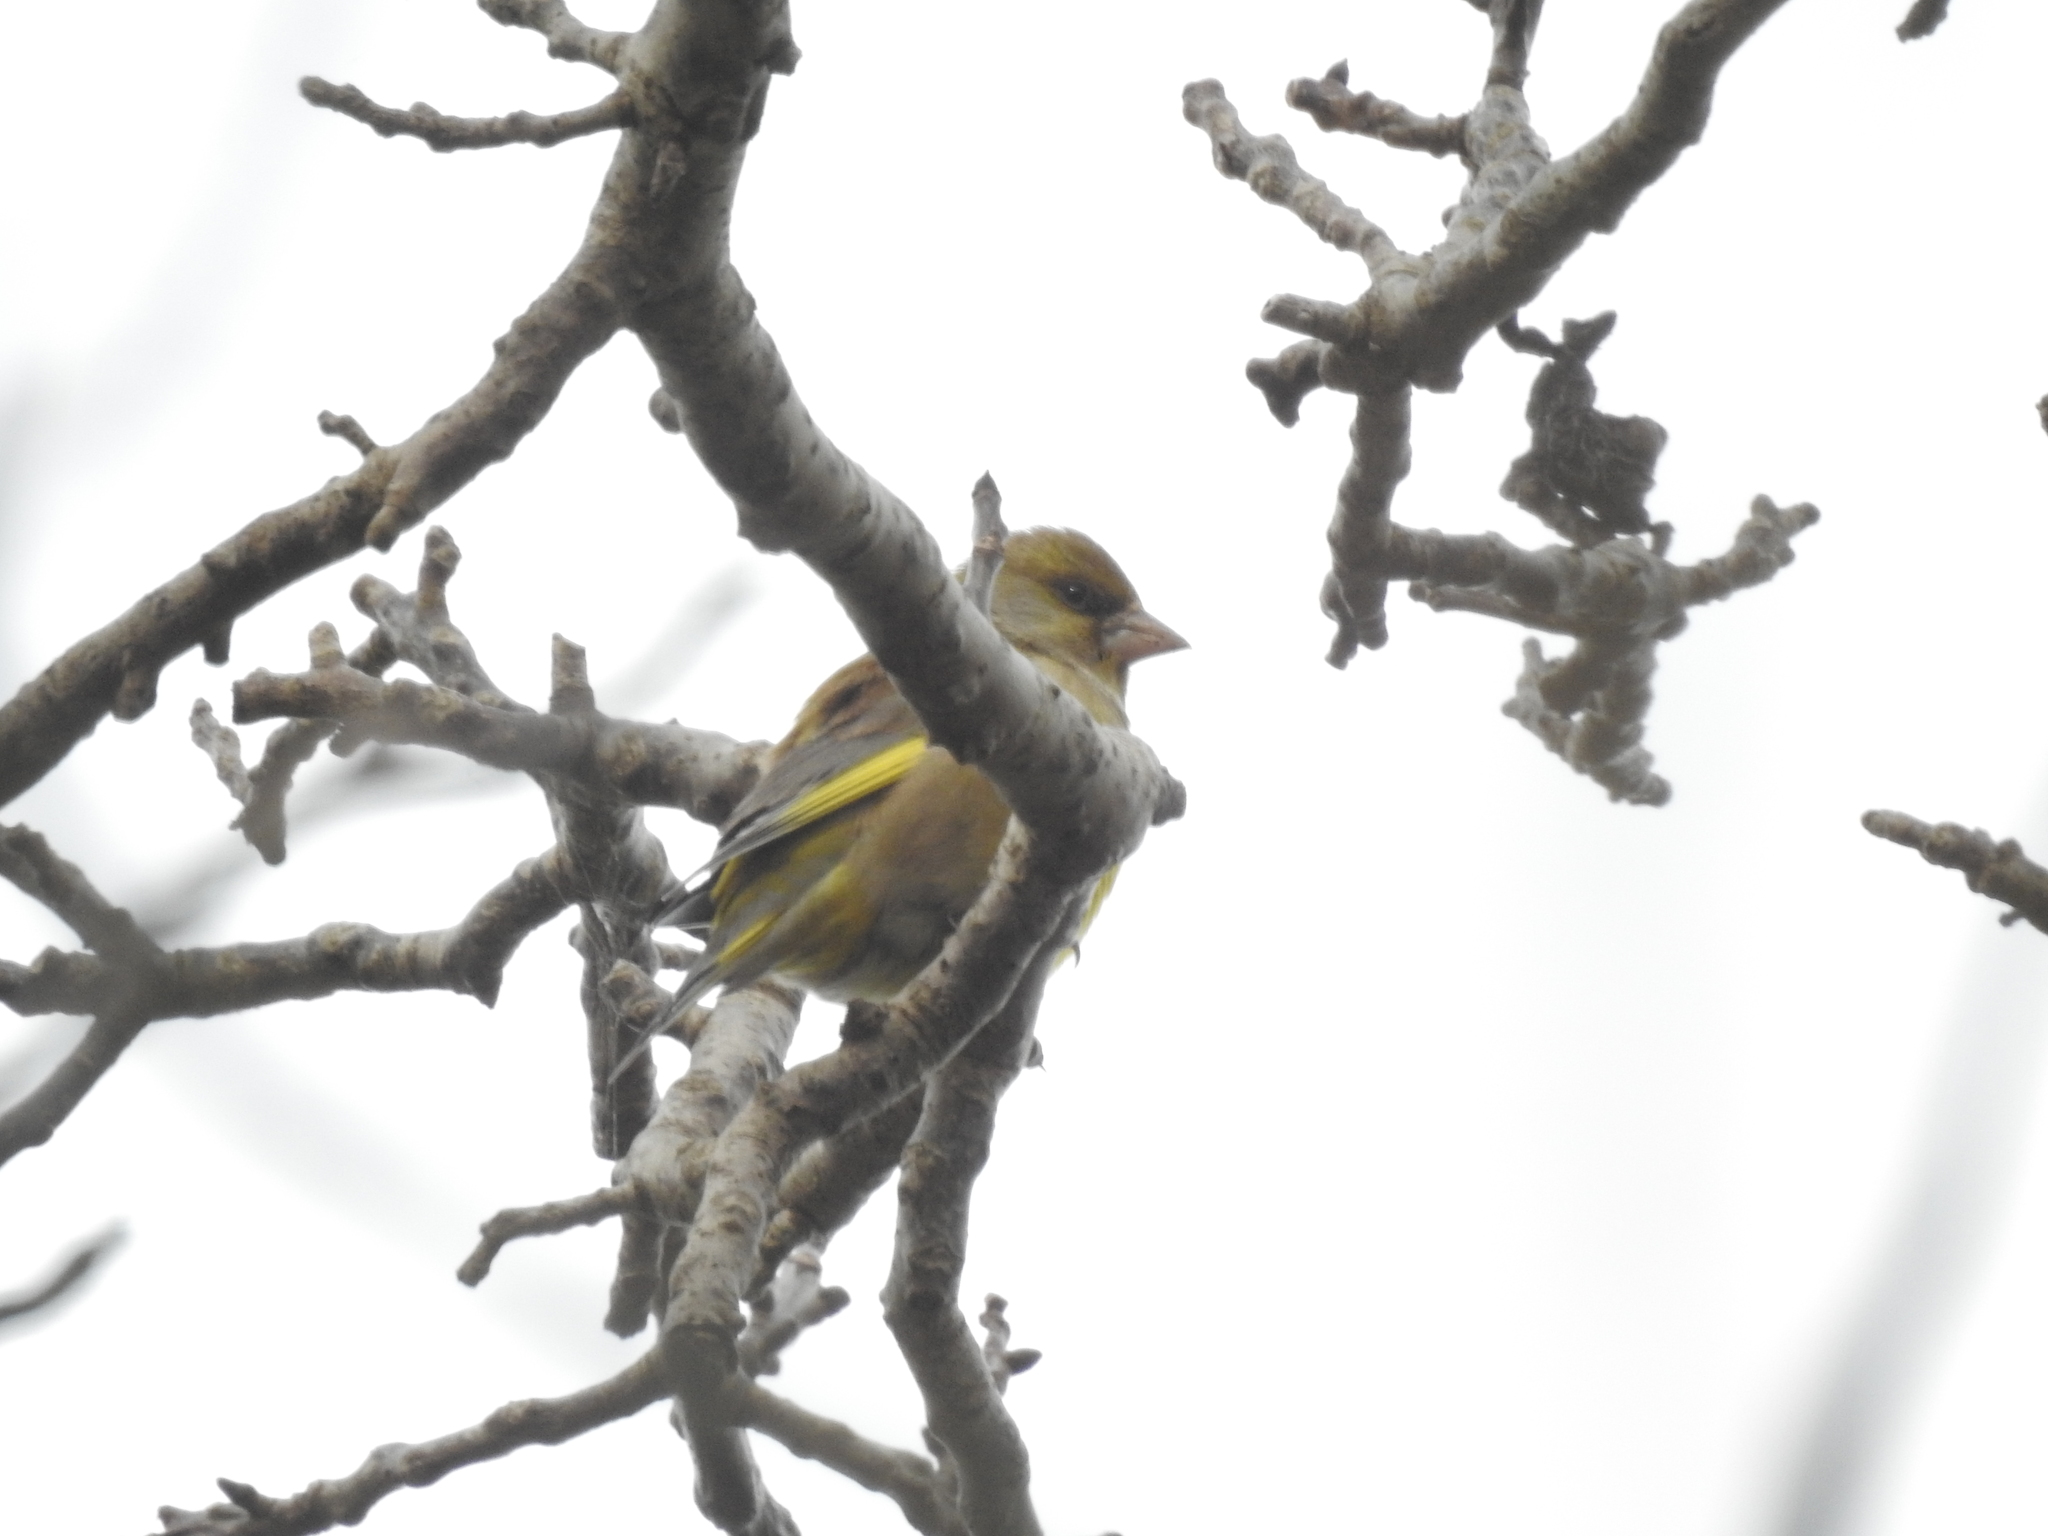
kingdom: Plantae
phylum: Tracheophyta
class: Liliopsida
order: Poales
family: Poaceae
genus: Chloris
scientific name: Chloris chloris
